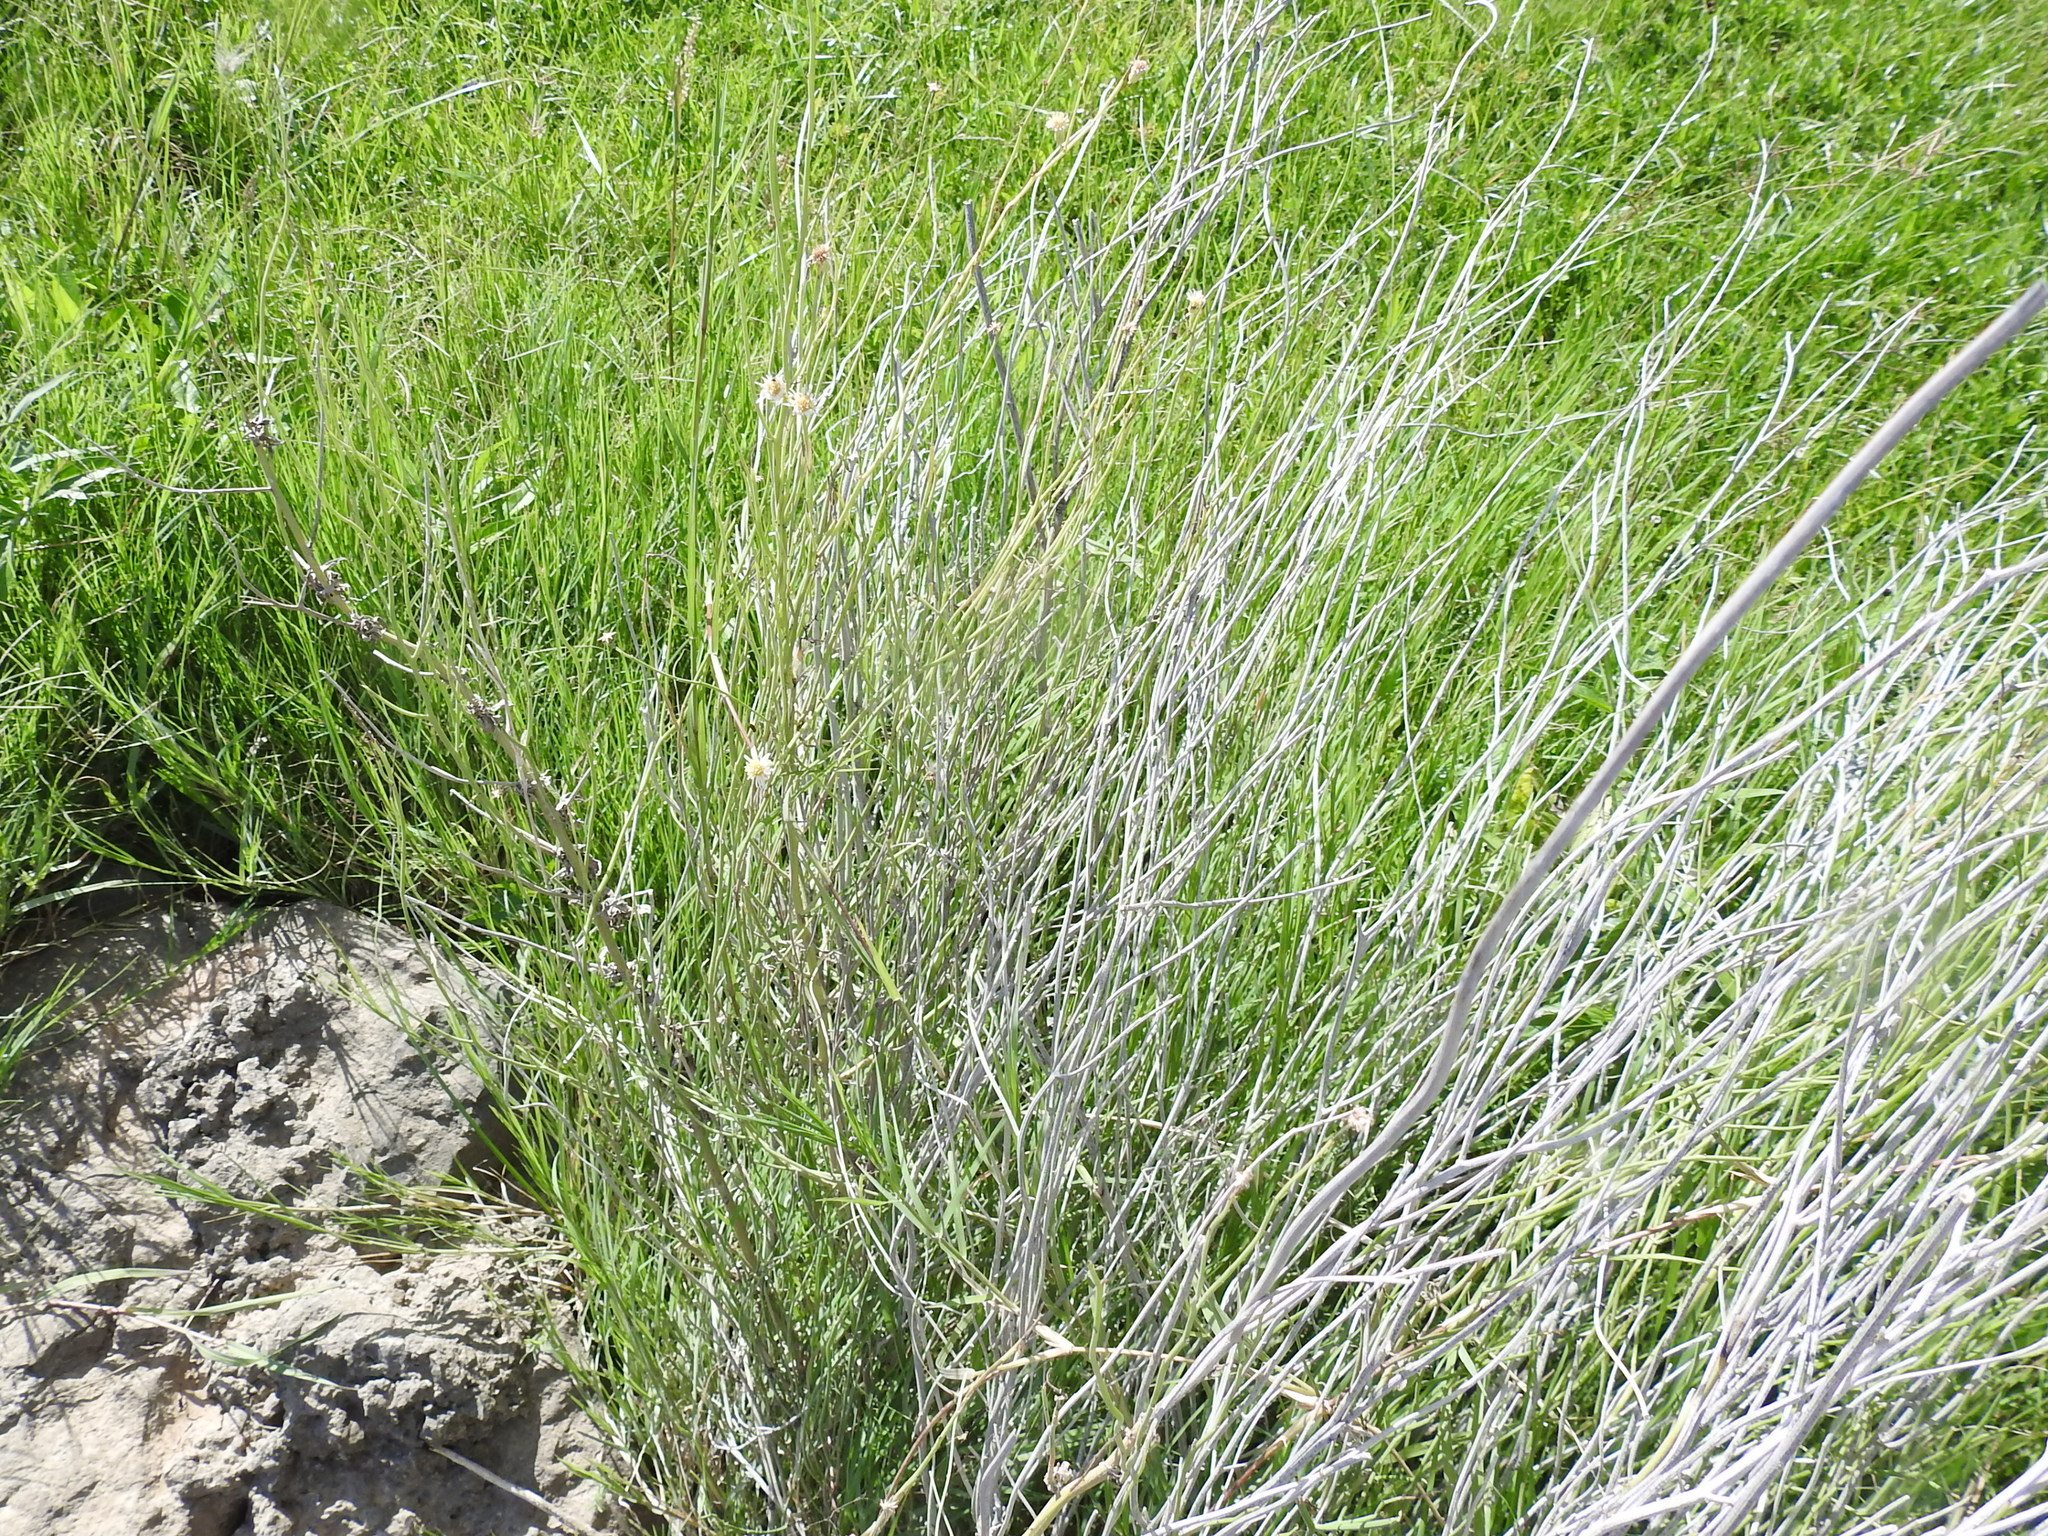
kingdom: Plantae
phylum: Tracheophyta
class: Magnoliopsida
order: Asterales
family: Asteraceae
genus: Chloracantha
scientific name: Chloracantha spinosa
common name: Mexican devilweed
